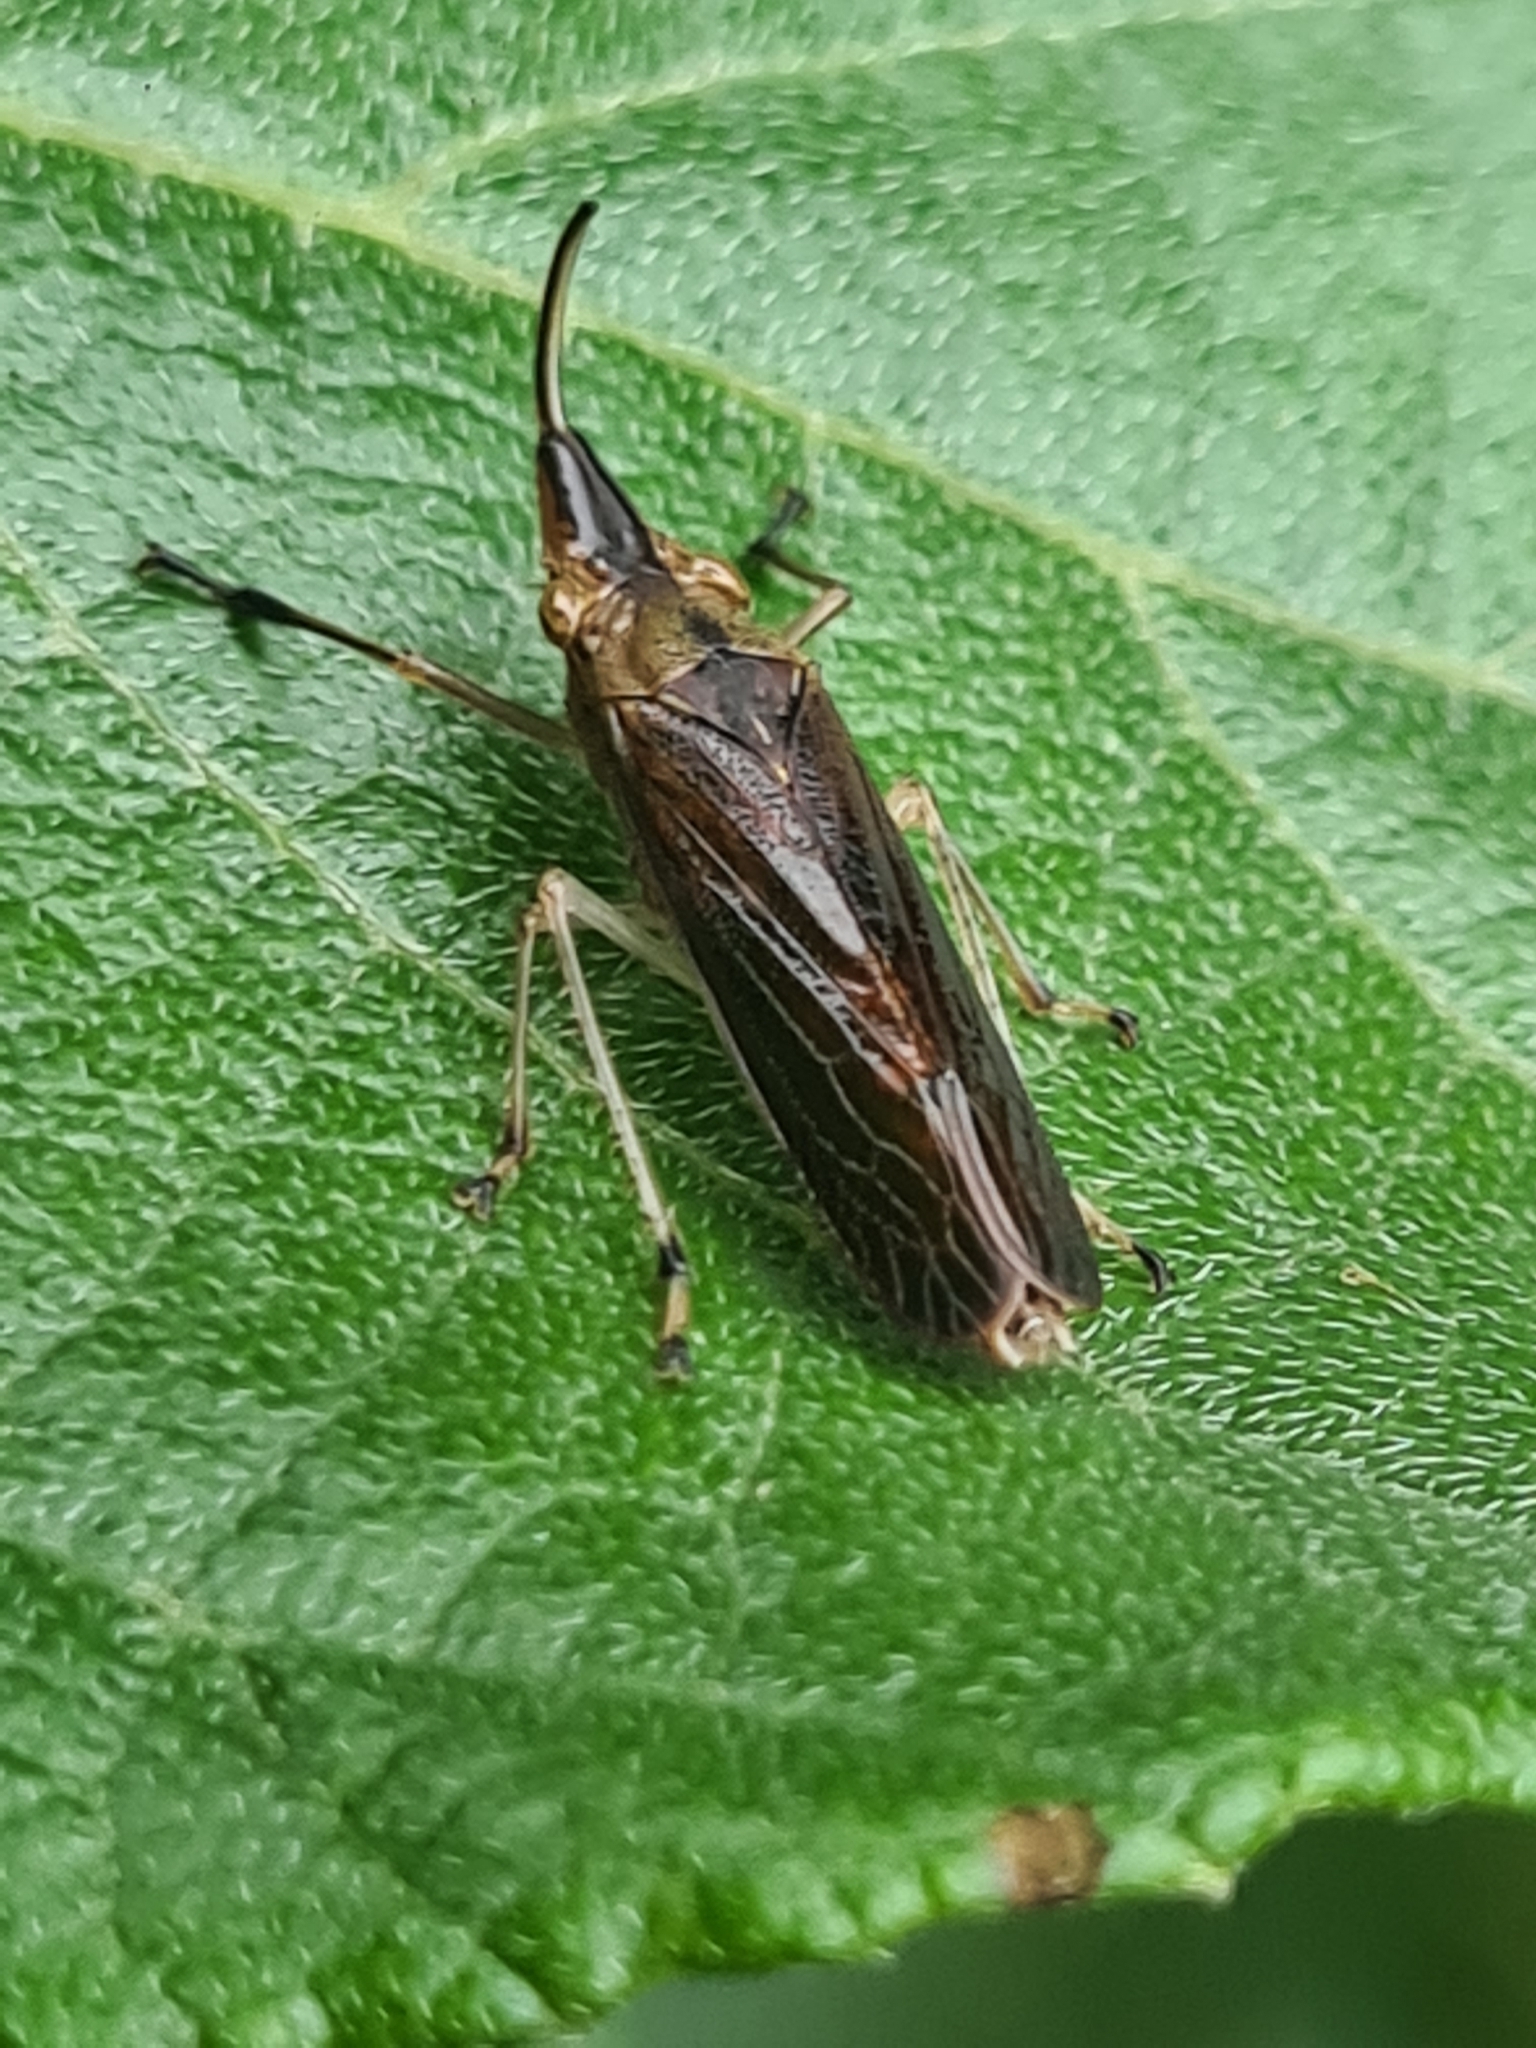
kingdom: Animalia
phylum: Arthropoda
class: Insecta
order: Hemiptera
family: Cicadellidae
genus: Raphirhinus
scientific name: Raphirhinus phosphoreus
